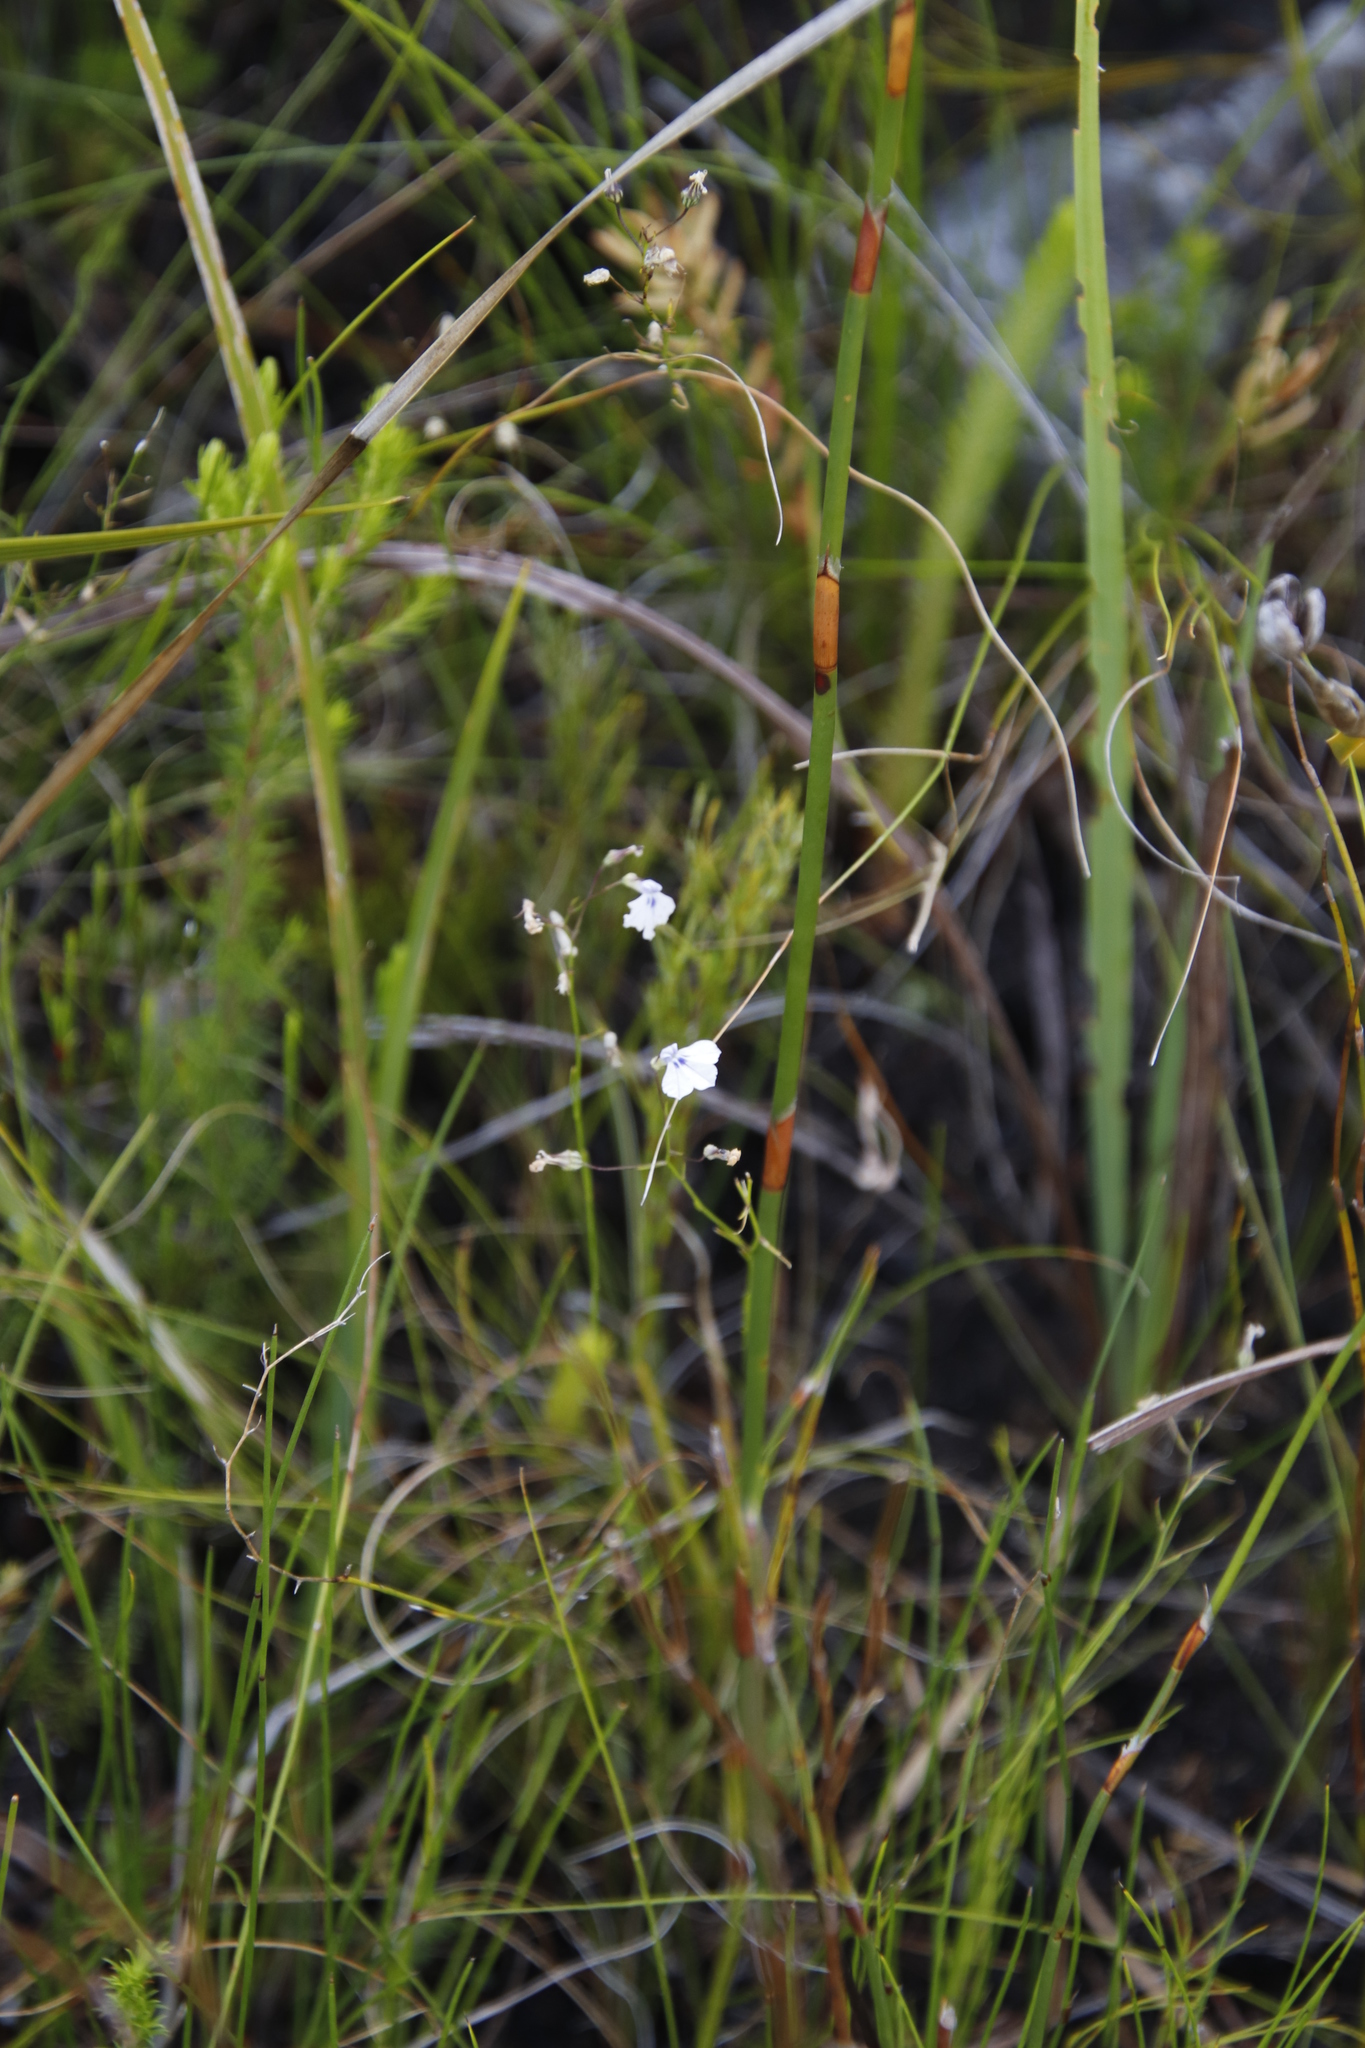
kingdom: Plantae
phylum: Tracheophyta
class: Magnoliopsida
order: Asterales
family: Campanulaceae
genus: Lobelia
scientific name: Lobelia setacea
